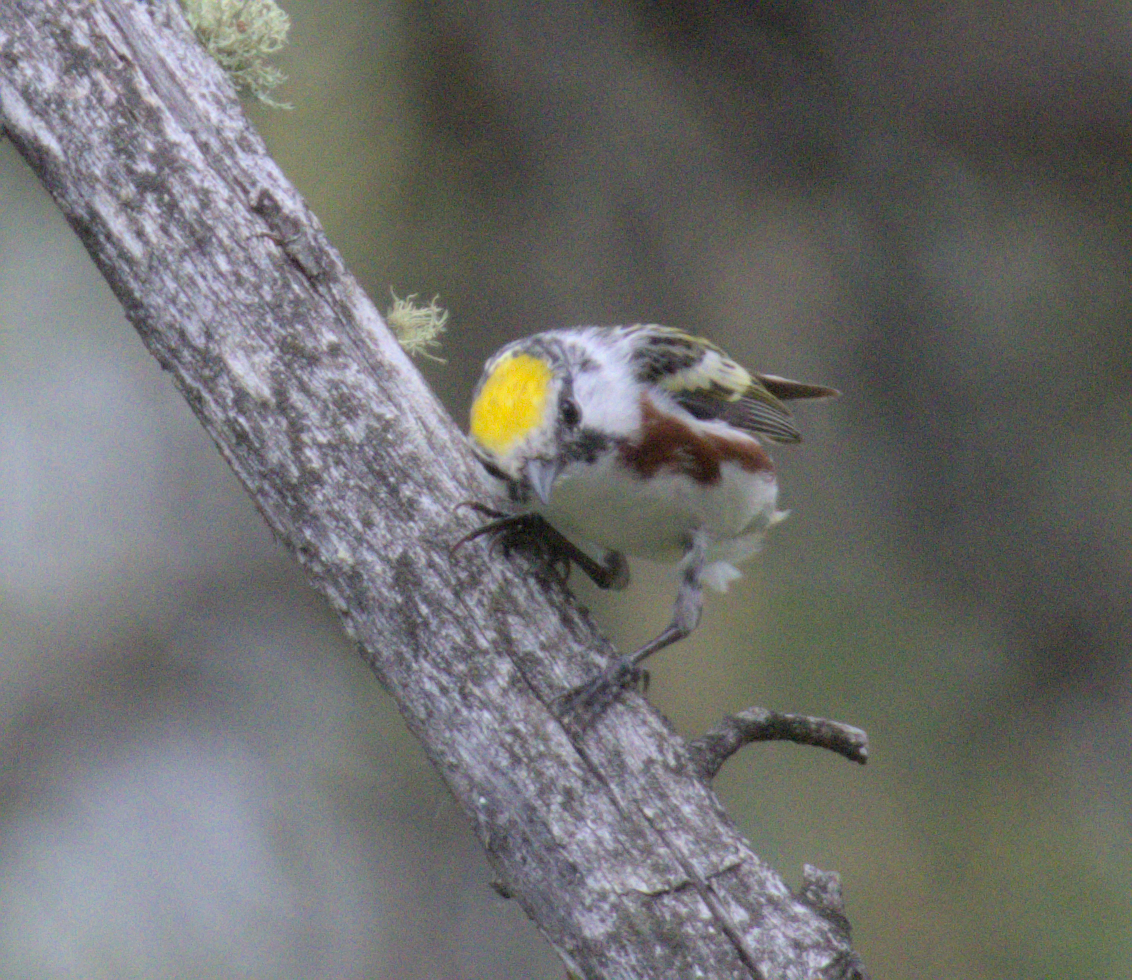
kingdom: Animalia
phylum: Chordata
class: Aves
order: Passeriformes
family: Parulidae
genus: Setophaga
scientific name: Setophaga pensylvanica
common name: Chestnut-sided warbler
